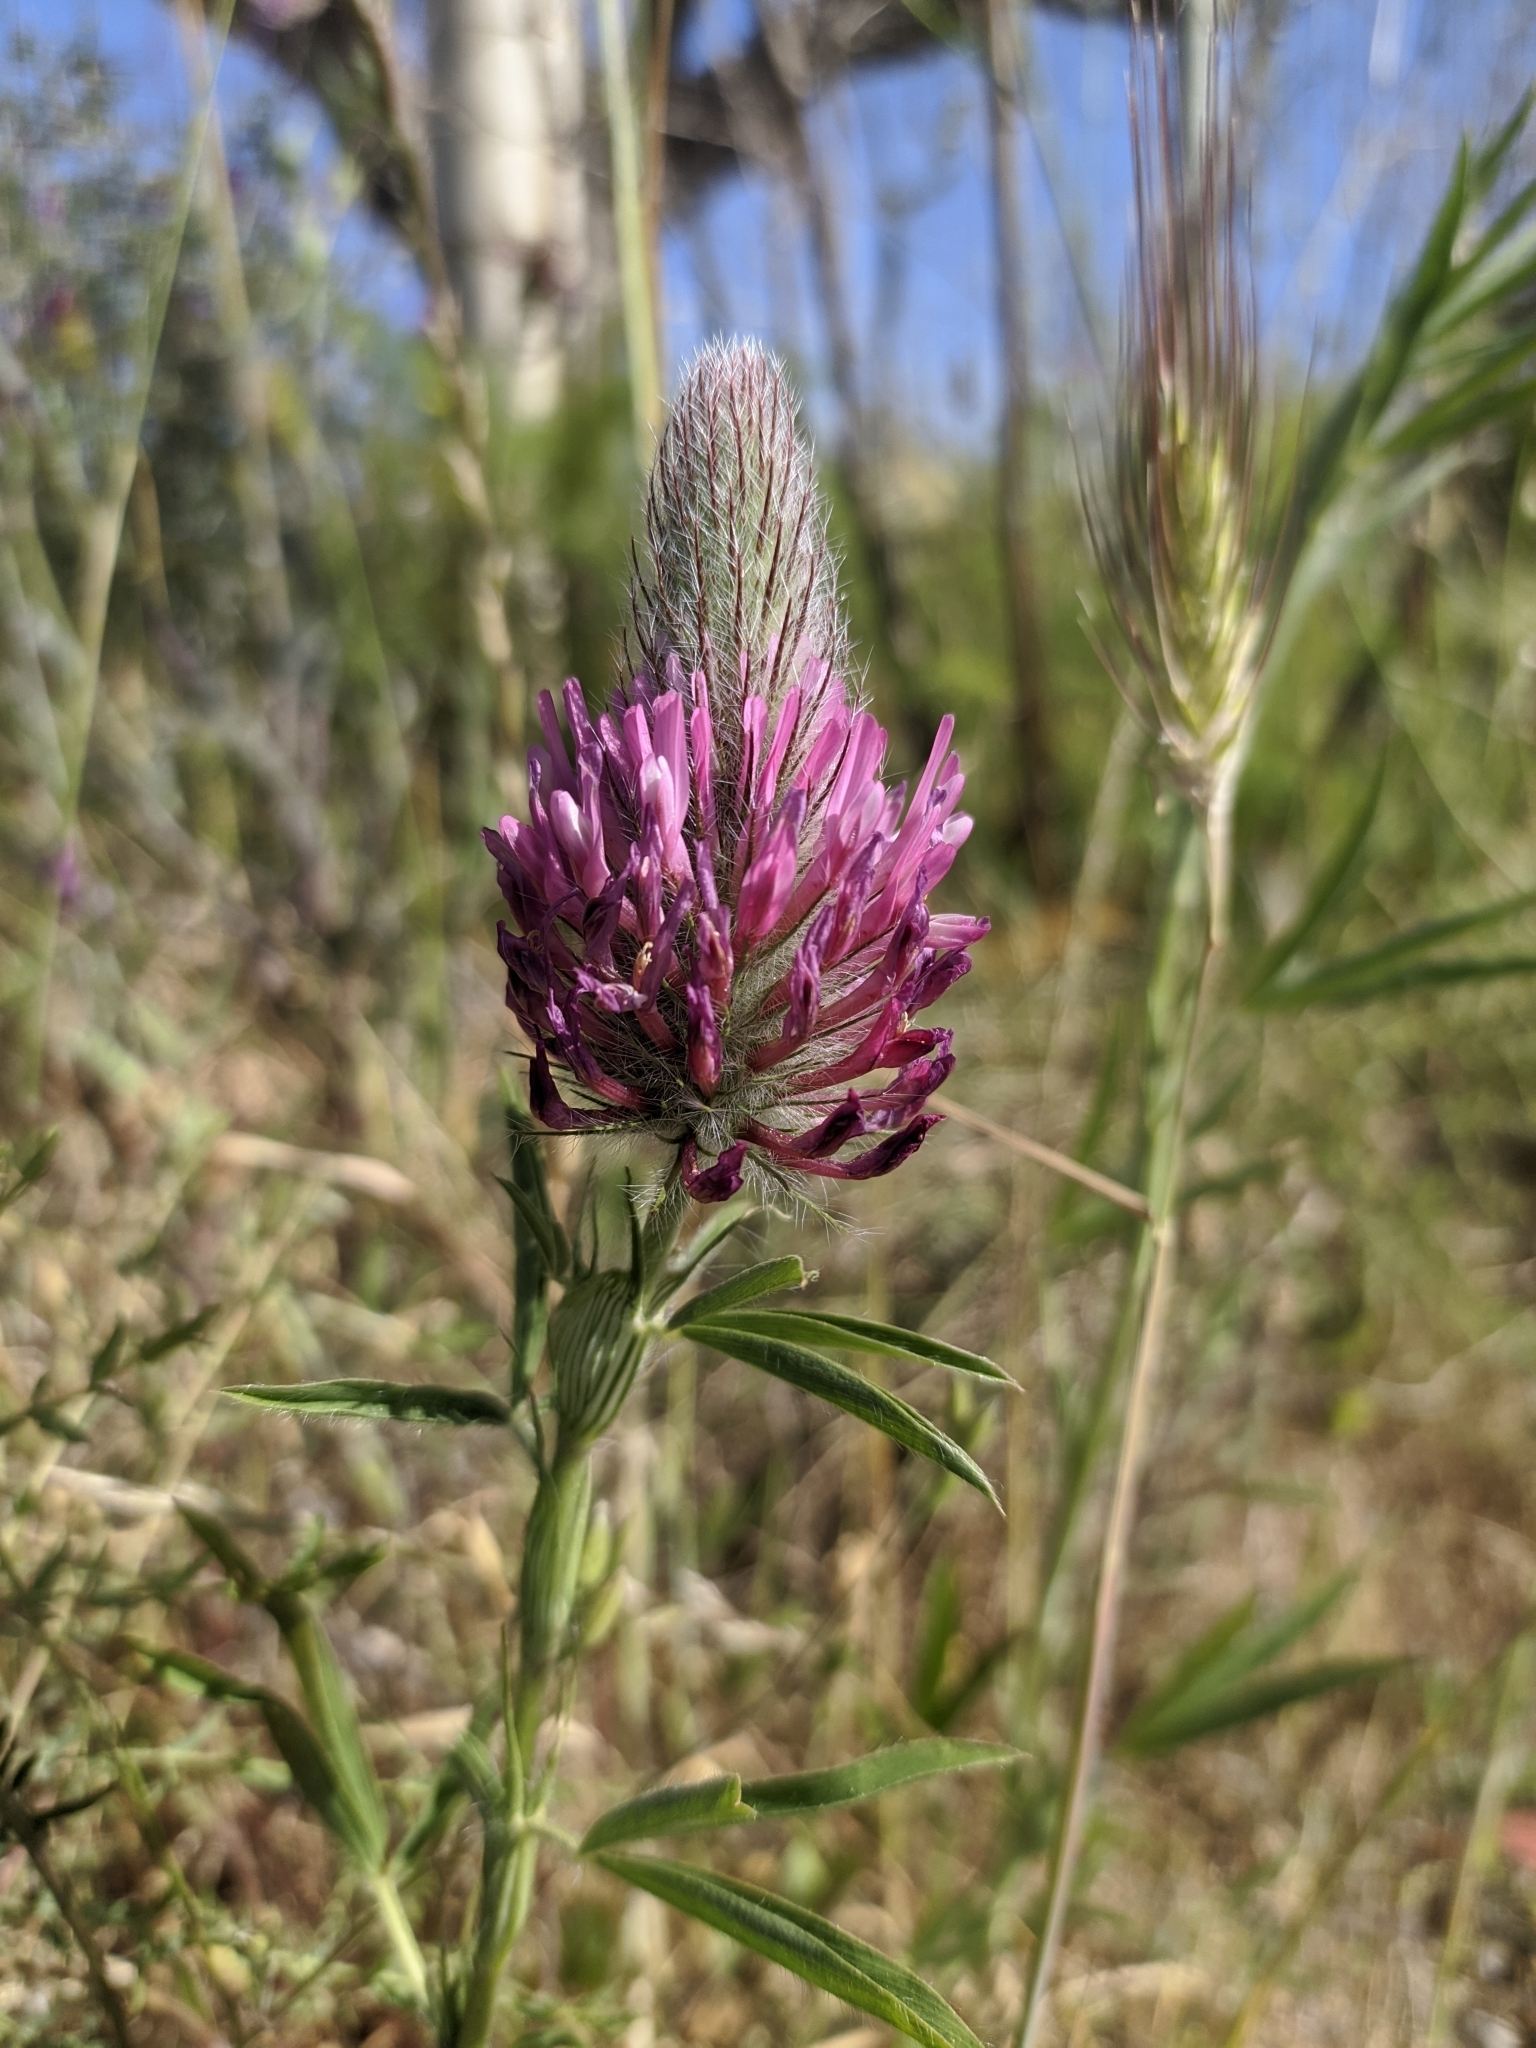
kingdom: Plantae
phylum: Tracheophyta
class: Magnoliopsida
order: Fabales
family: Fabaceae
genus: Trifolium
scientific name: Trifolium purpureum
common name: Purple clover
